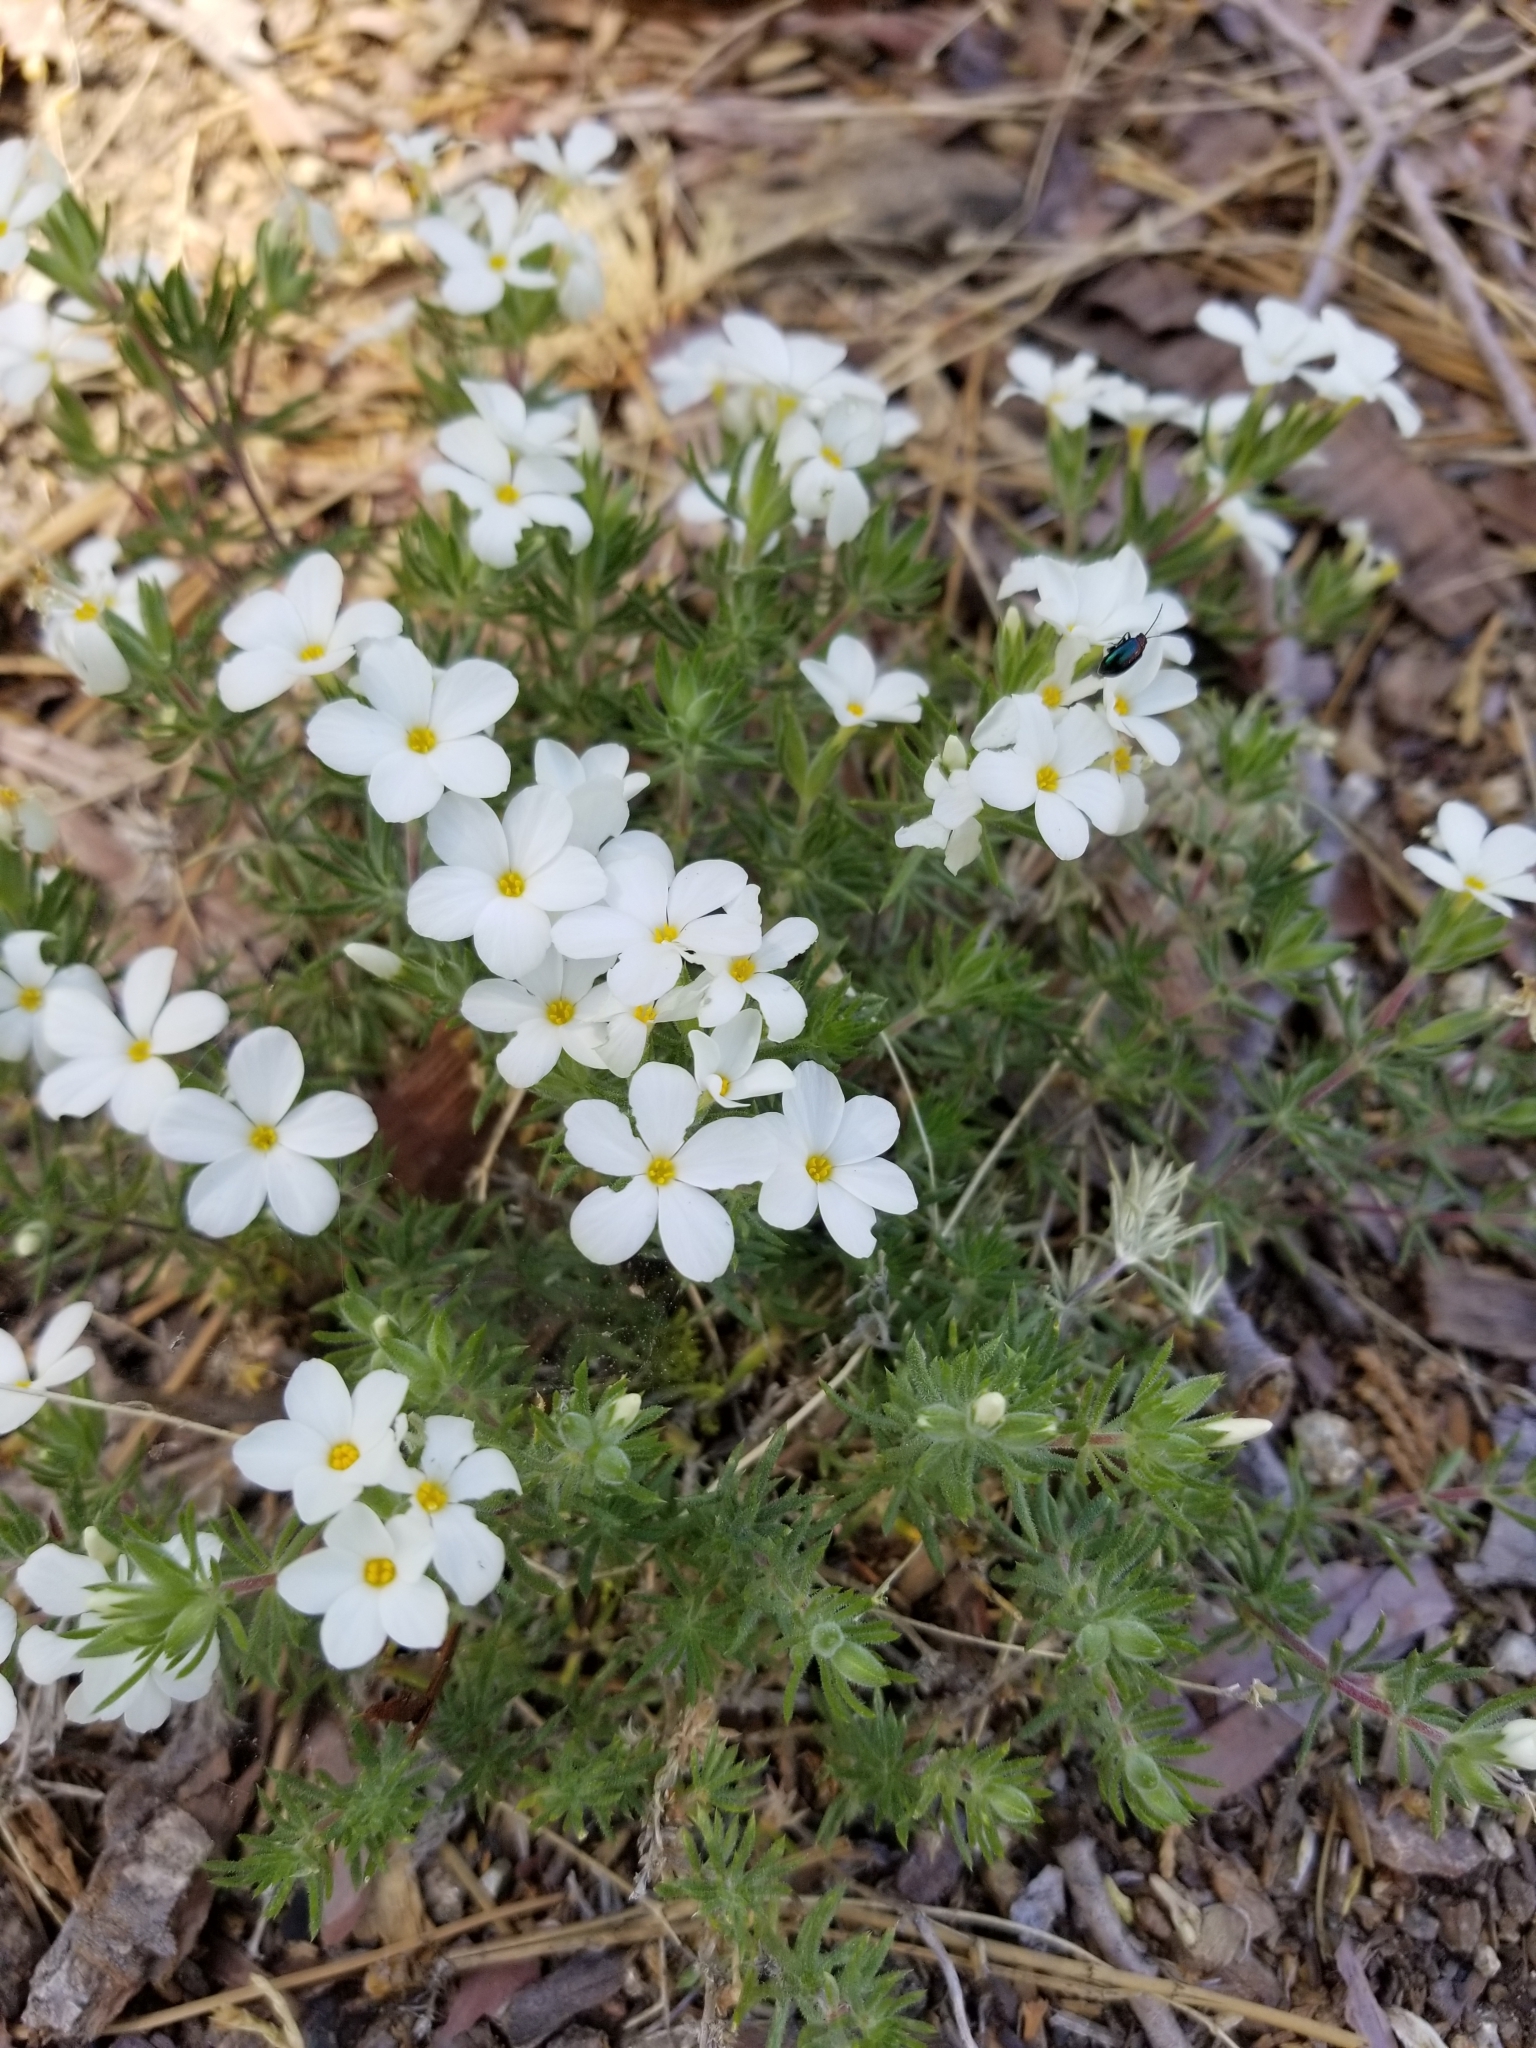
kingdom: Plantae
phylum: Tracheophyta
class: Magnoliopsida
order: Ericales
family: Polemoniaceae
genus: Leptosiphon
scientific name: Leptosiphon floribundum
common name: Many-flower linanthus
